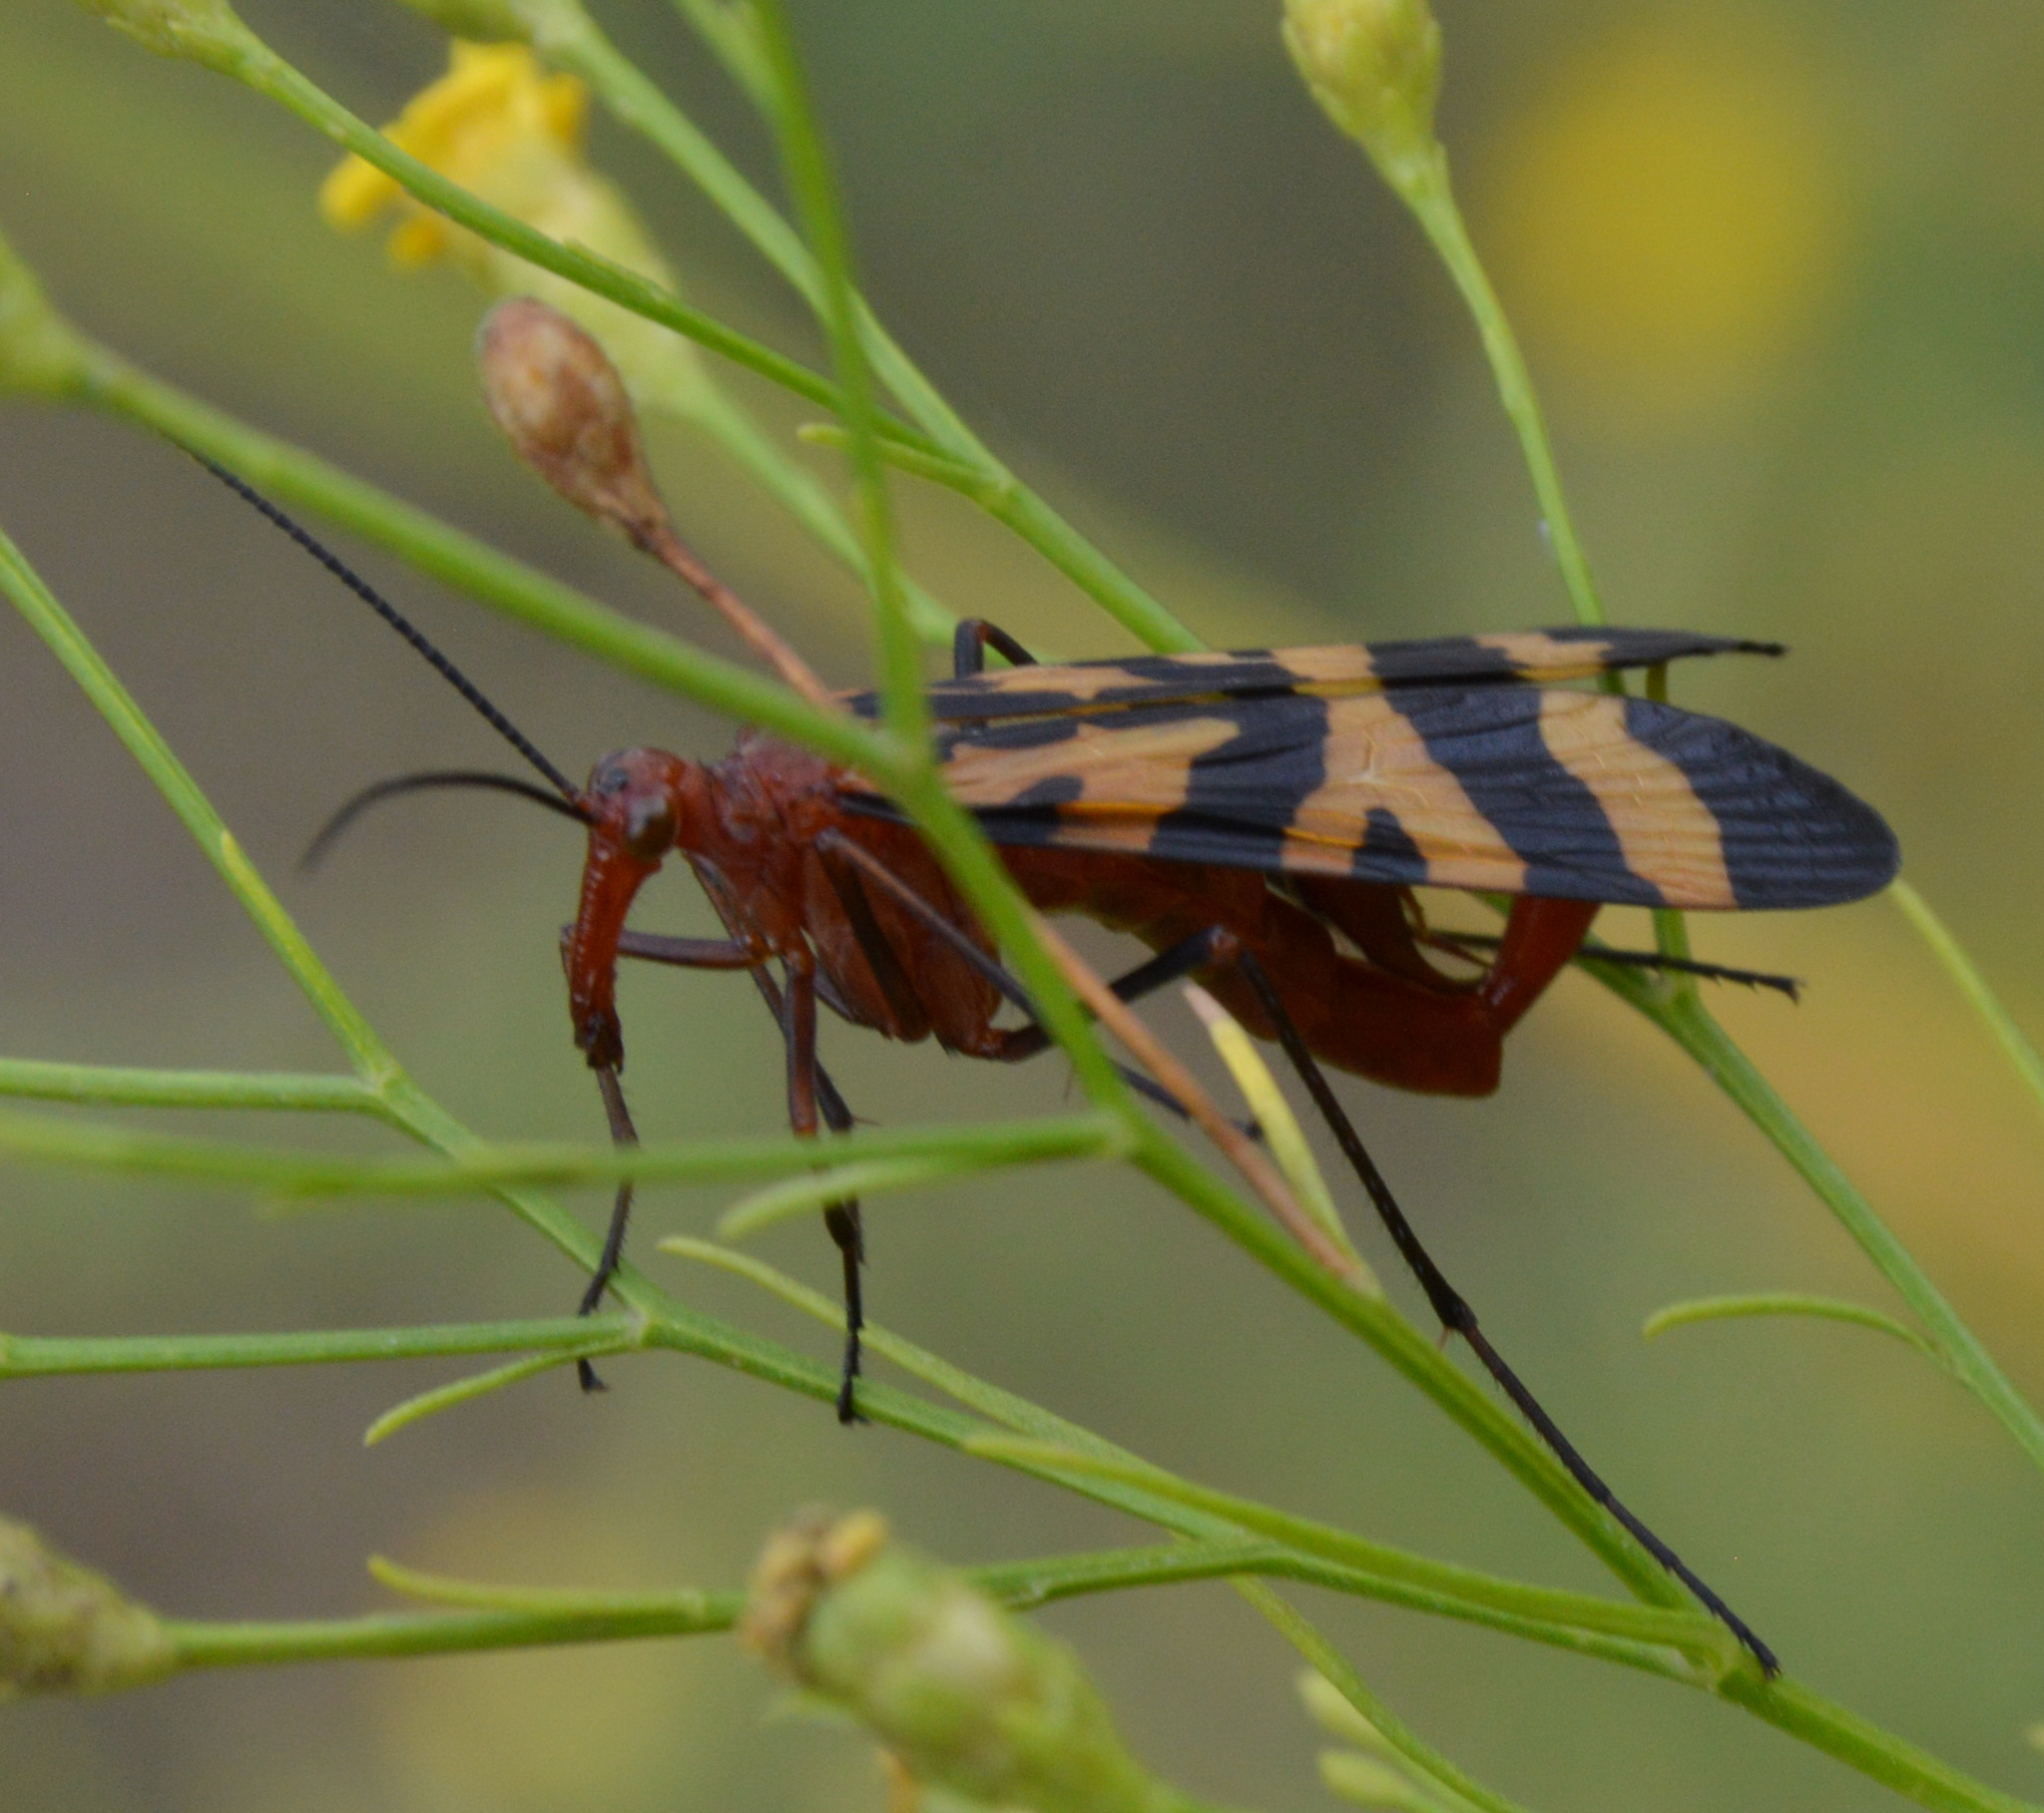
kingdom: Animalia
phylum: Arthropoda
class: Insecta
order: Mecoptera
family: Panorpidae
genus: Panorpa
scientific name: Panorpa nuptialis
